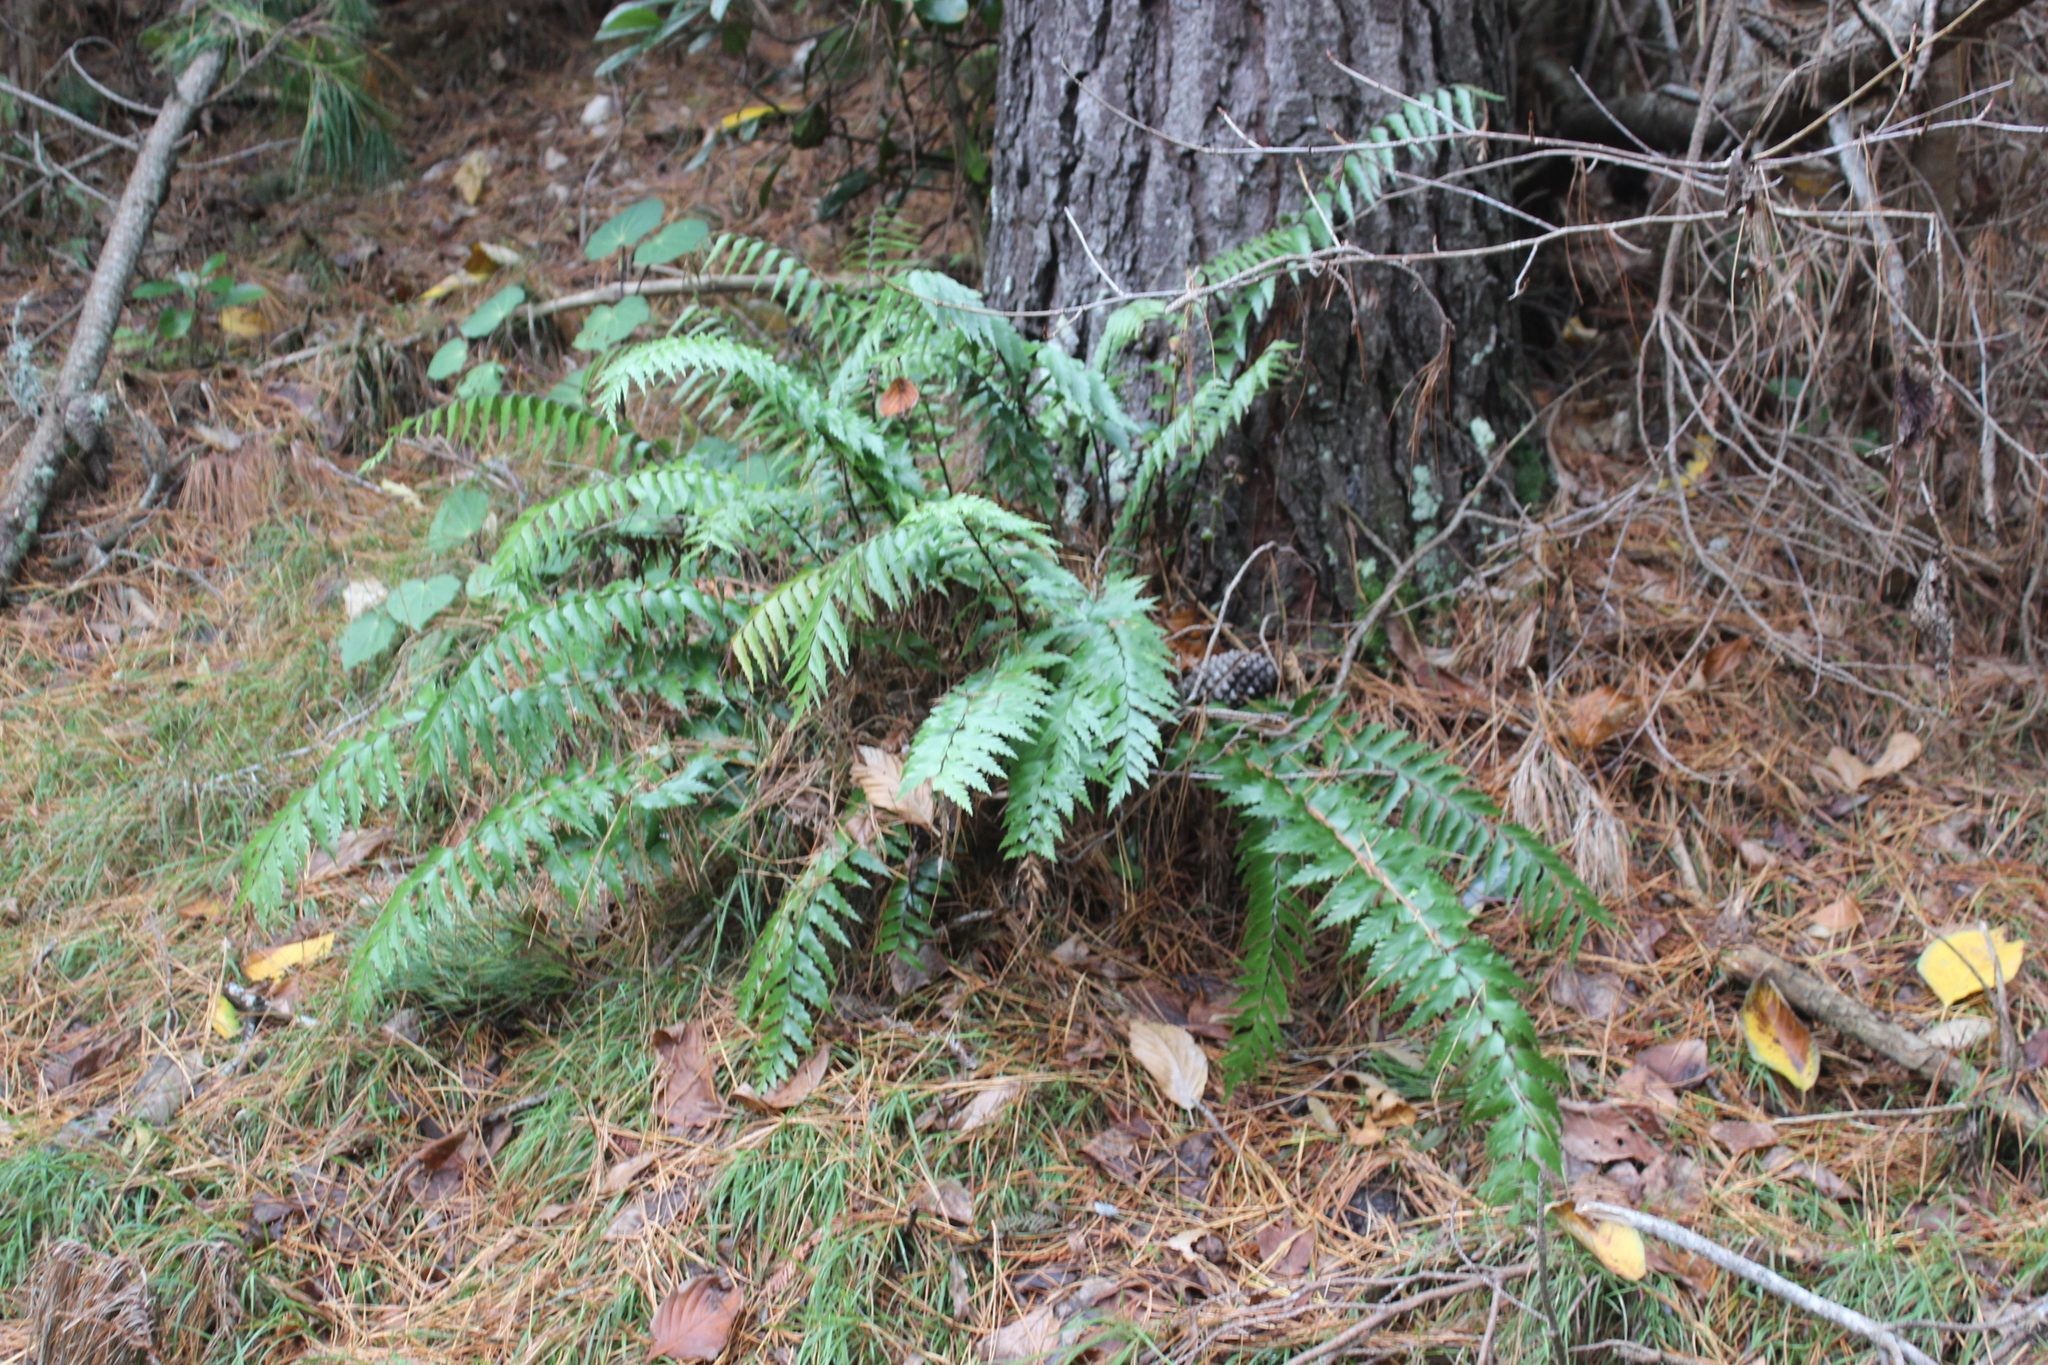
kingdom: Plantae
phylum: Tracheophyta
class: Polypodiopsida
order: Polypodiales
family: Aspleniaceae
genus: Asplenium
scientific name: Asplenium polyodon
